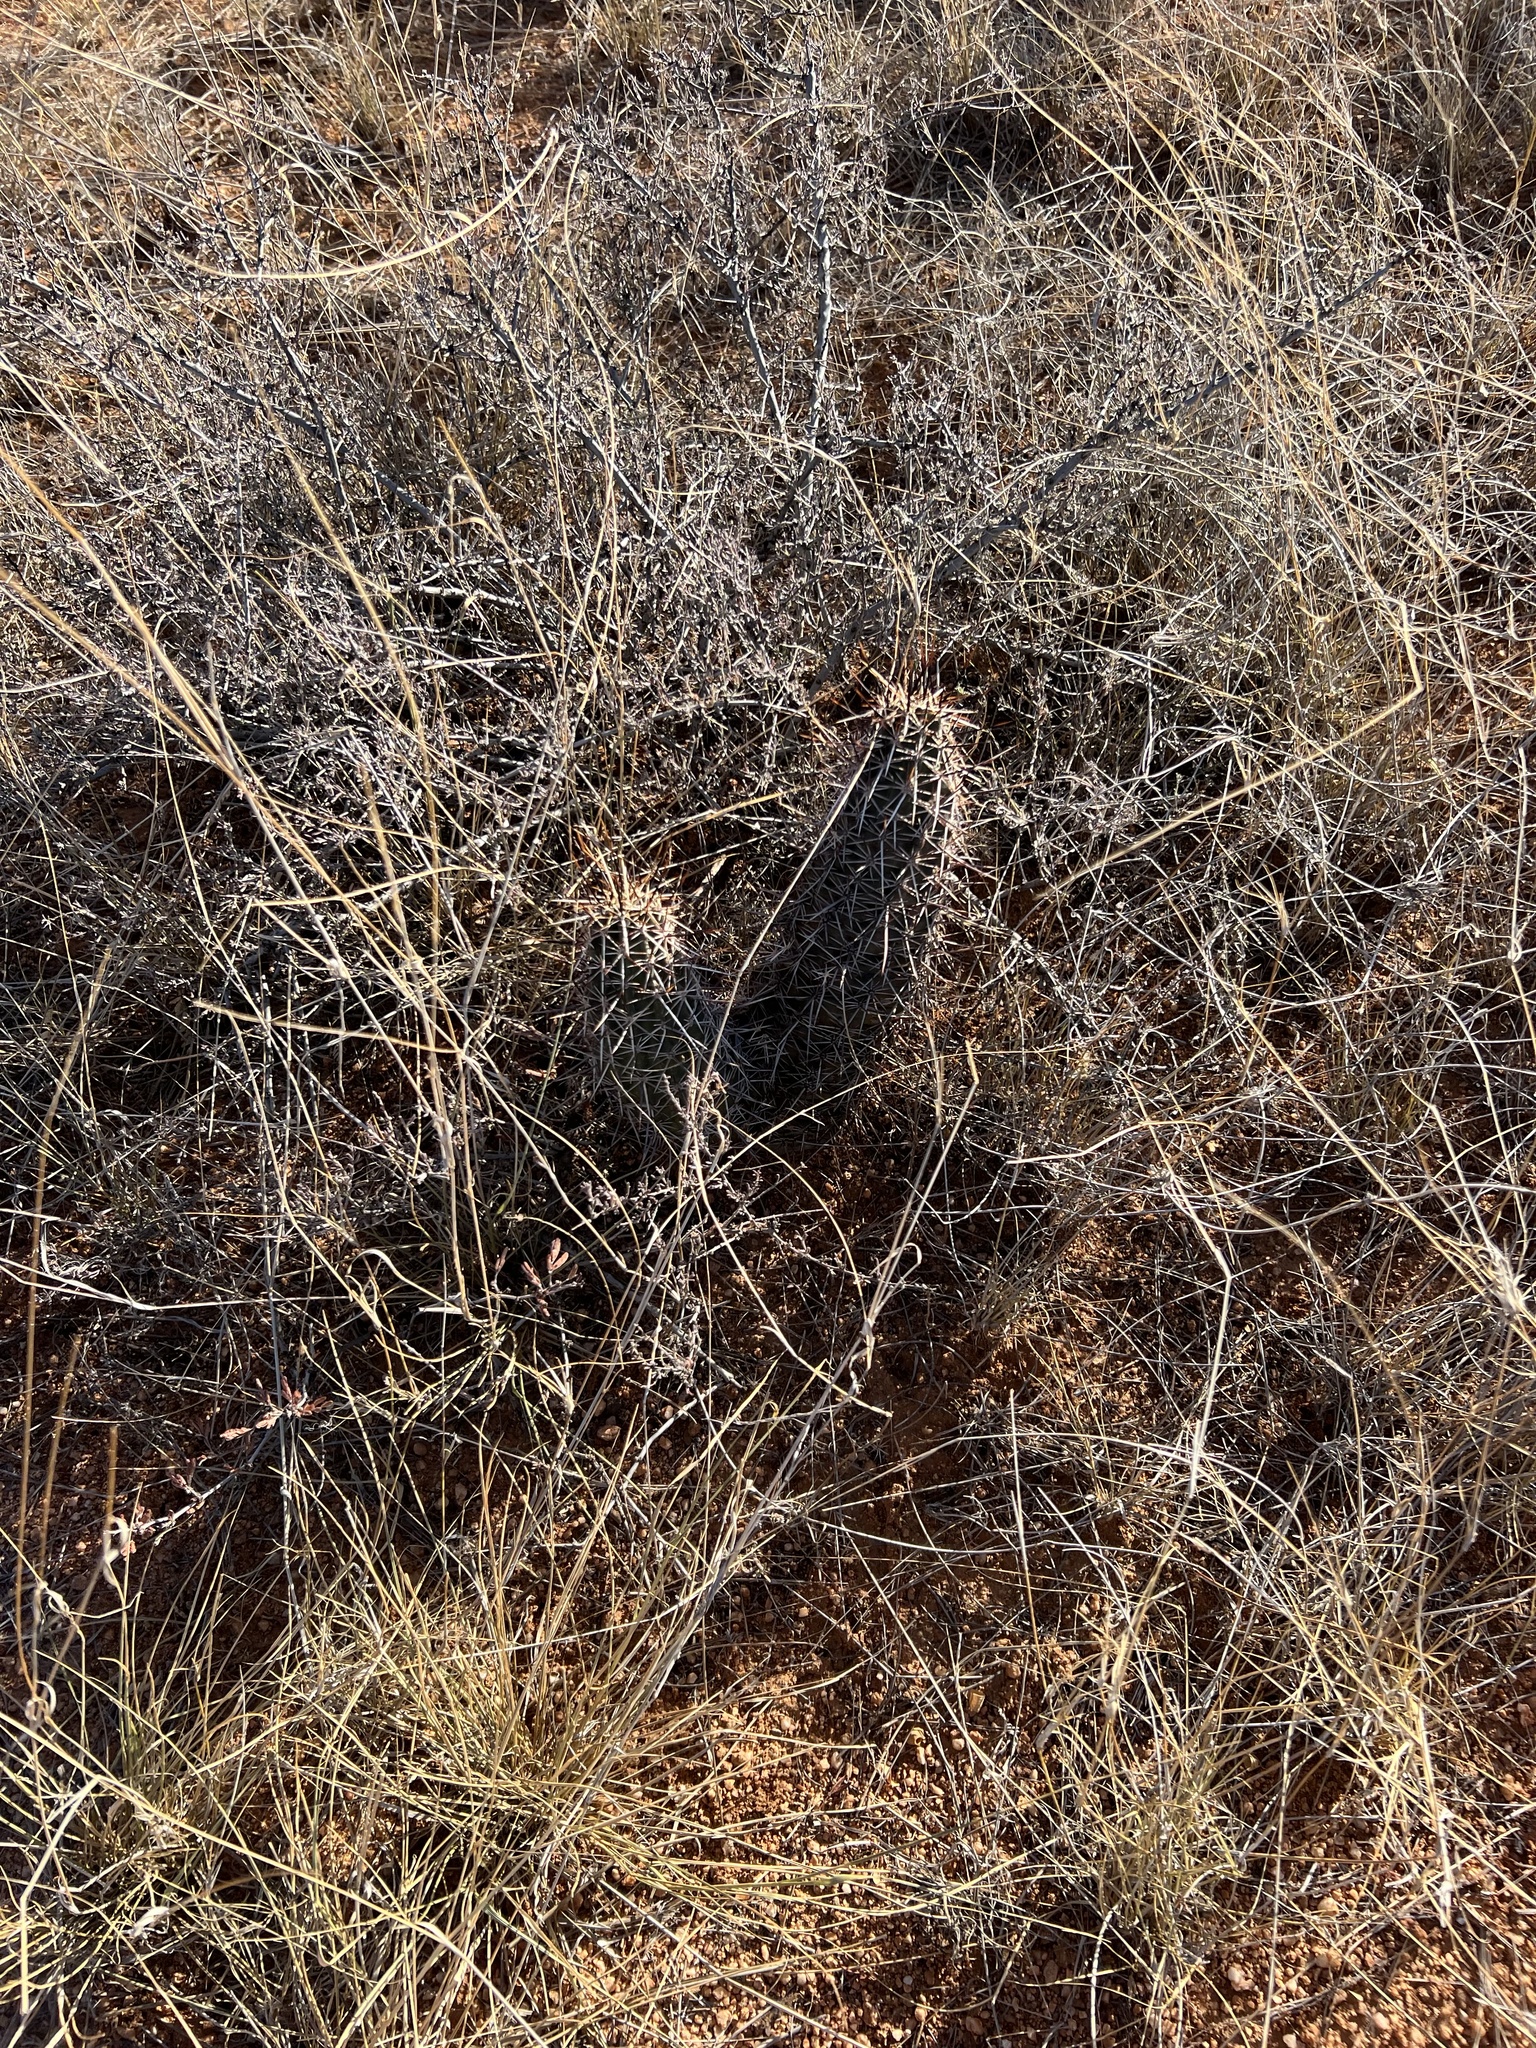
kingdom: Plantae
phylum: Tracheophyta
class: Magnoliopsida
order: Caryophyllales
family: Cactaceae
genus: Echinocereus
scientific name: Echinocereus fasciculatus
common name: Bundle hedgehog
